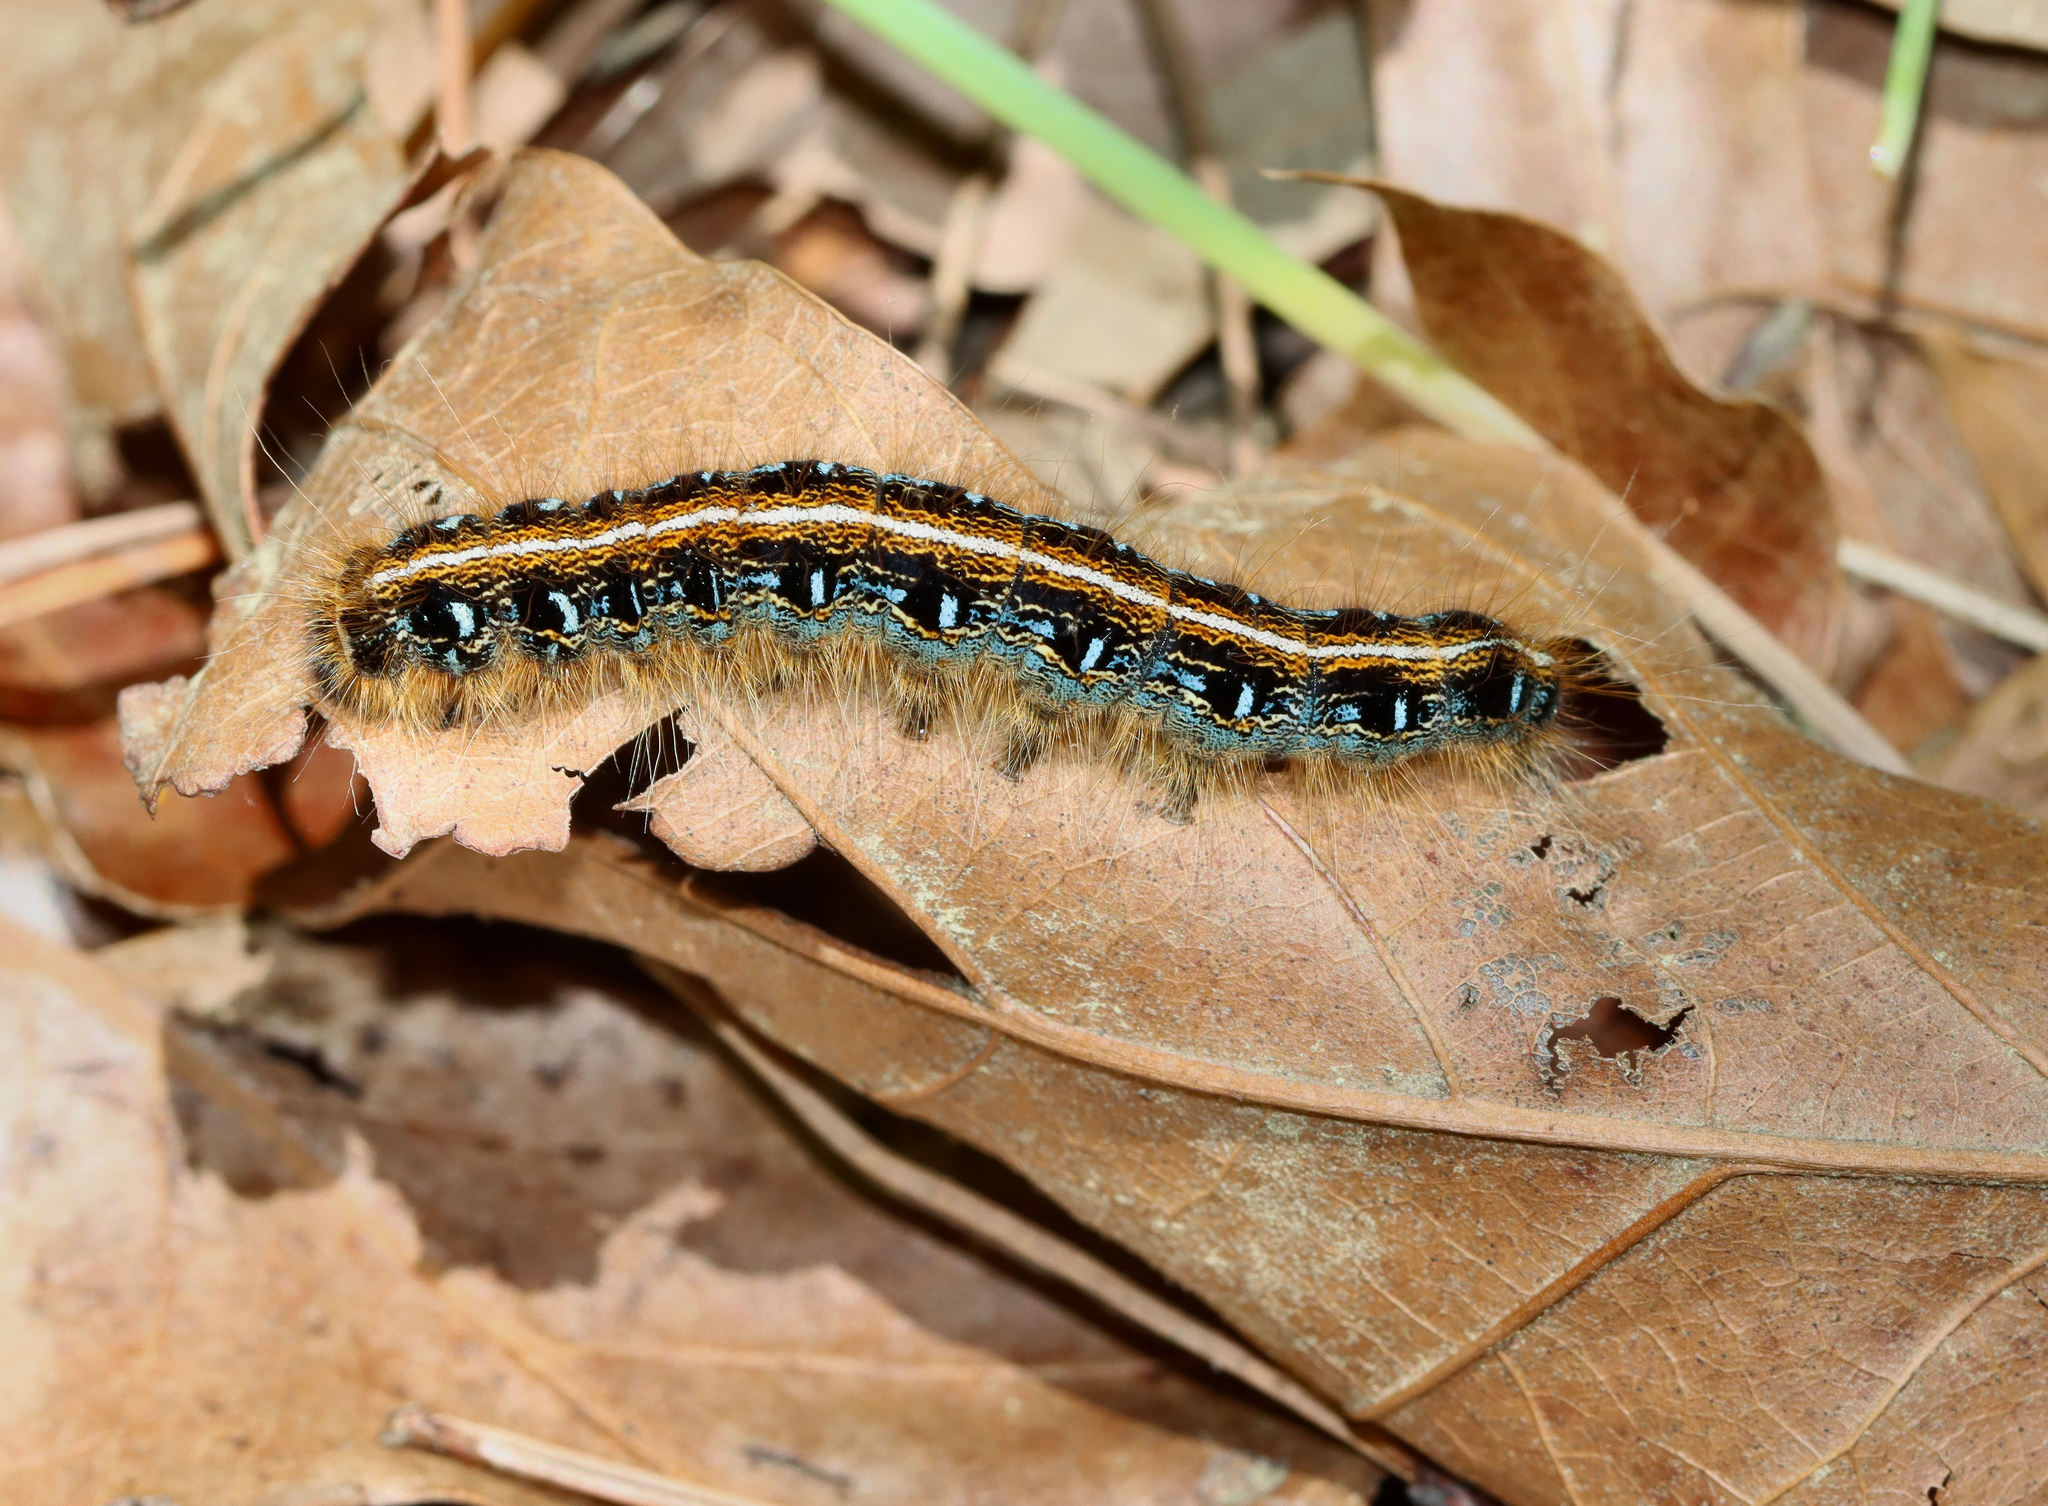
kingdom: Animalia
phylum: Arthropoda
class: Insecta
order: Lepidoptera
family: Lasiocampidae
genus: Malacosoma
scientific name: Malacosoma americana
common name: Eastern tent caterpillar moth
